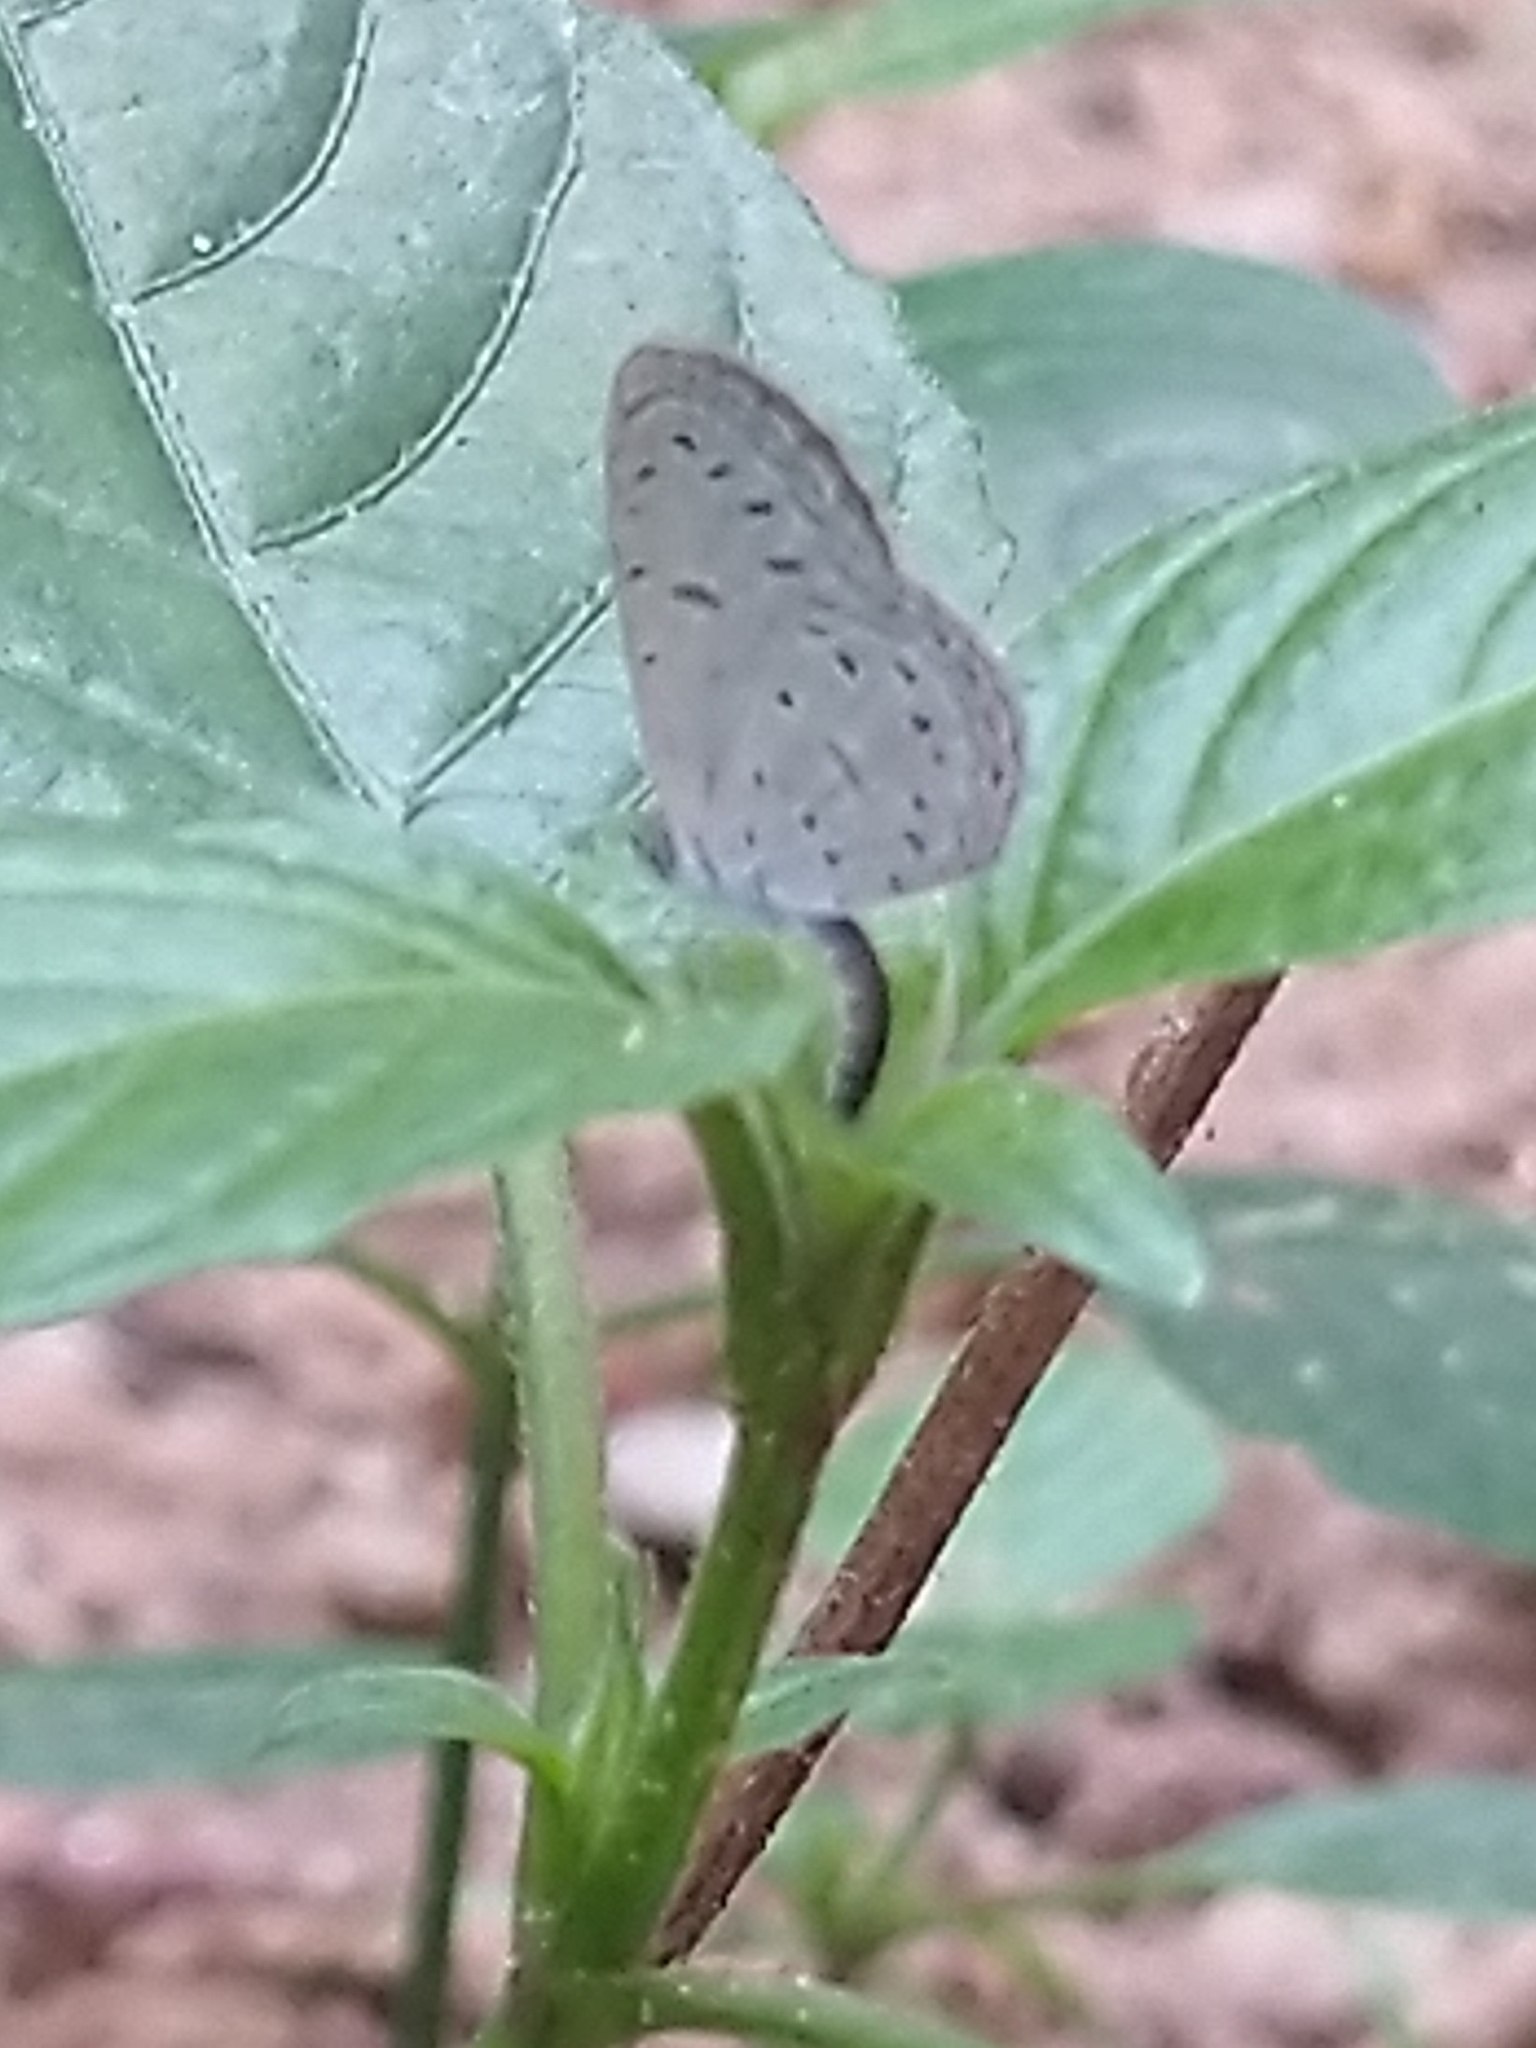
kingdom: Animalia
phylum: Arthropoda
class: Insecta
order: Lepidoptera
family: Lycaenidae
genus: Zizula
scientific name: Zizula hylax
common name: Gaika blue
